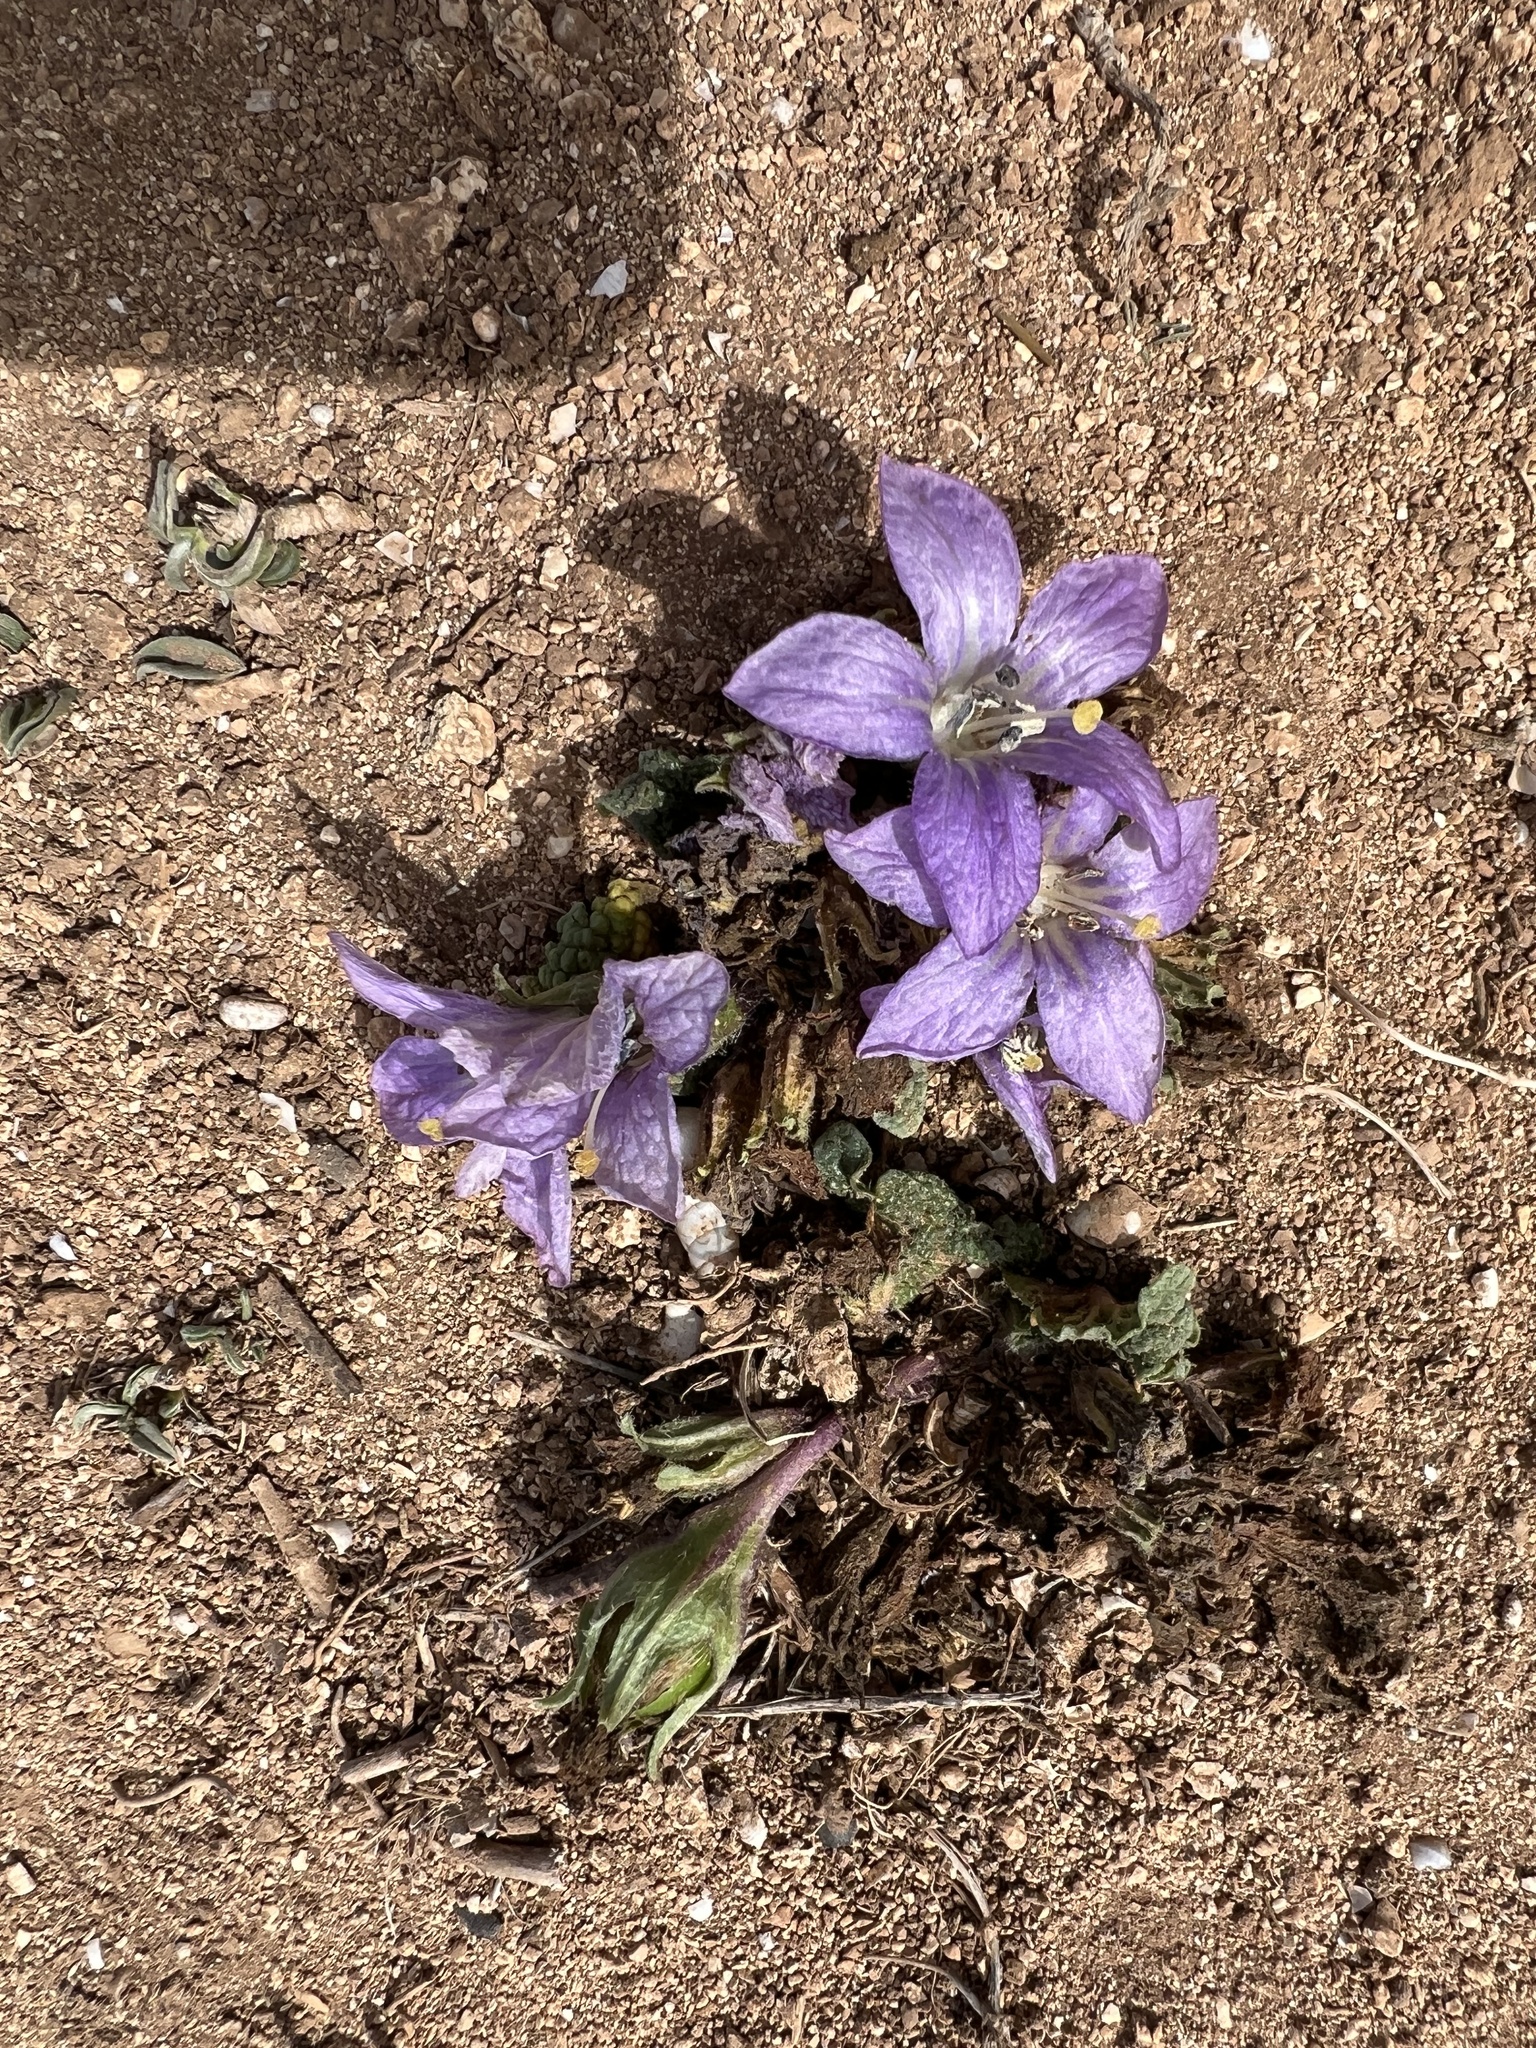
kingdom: Plantae
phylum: Tracheophyta
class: Magnoliopsida
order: Solanales
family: Solanaceae
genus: Mandragora
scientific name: Mandragora officinarum
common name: Mandrake
